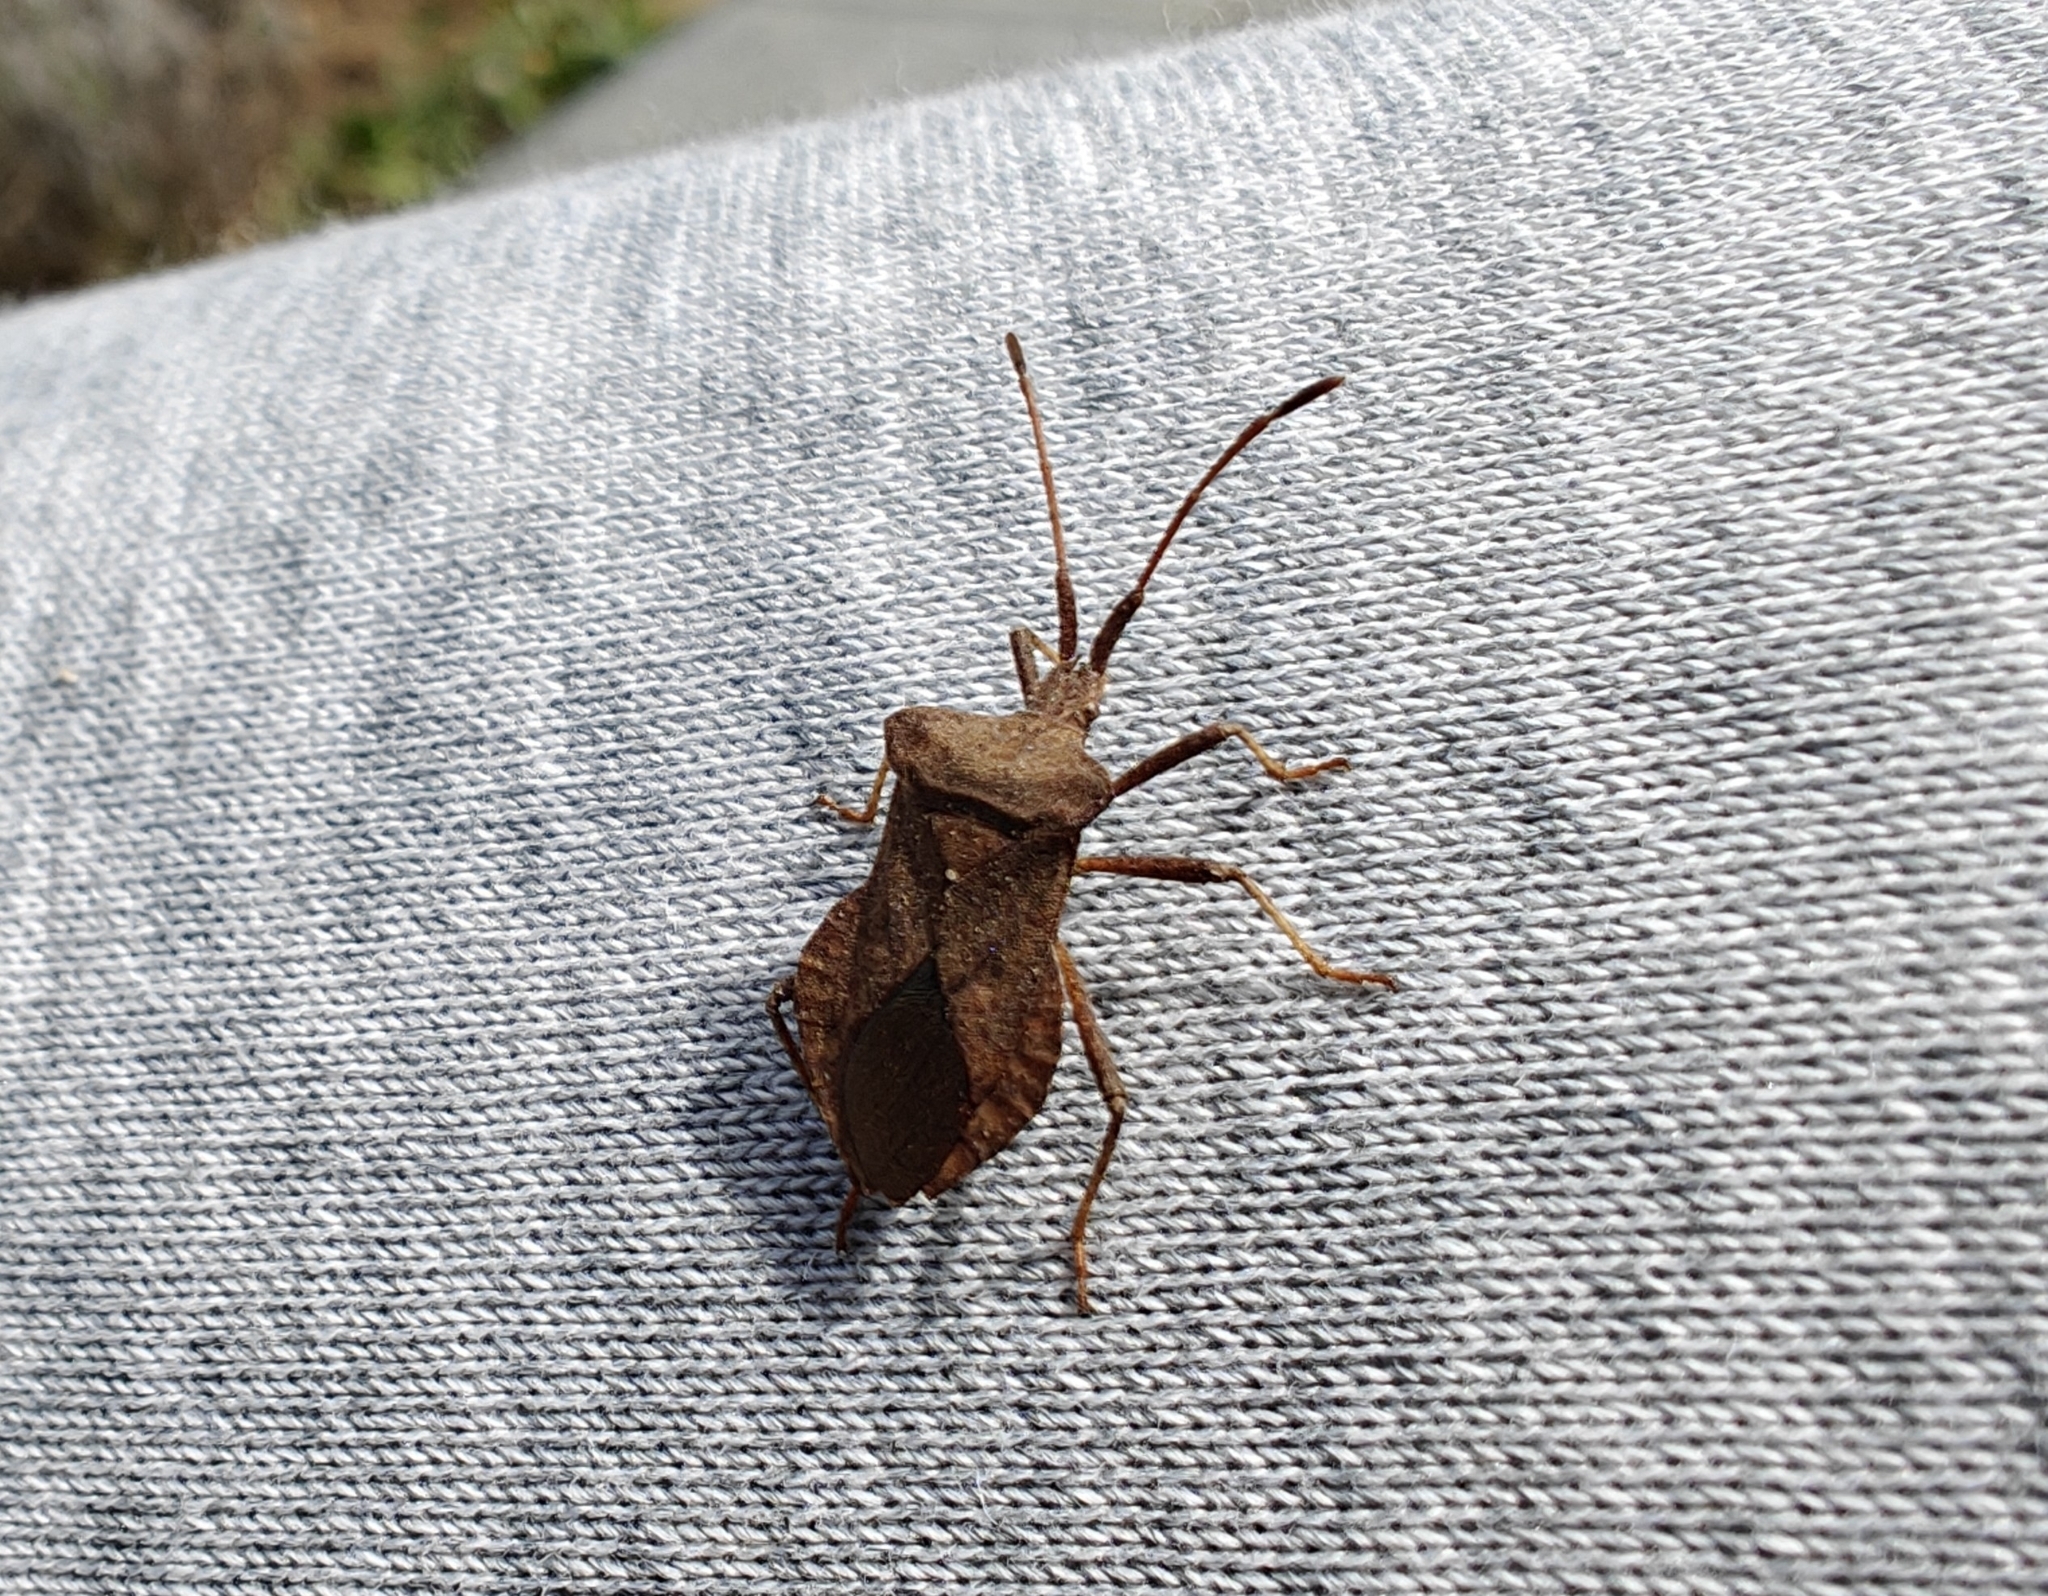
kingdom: Animalia
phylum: Arthropoda
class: Insecta
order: Hemiptera
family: Coreidae
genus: Coreus
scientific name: Coreus marginatus
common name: Dock bug
